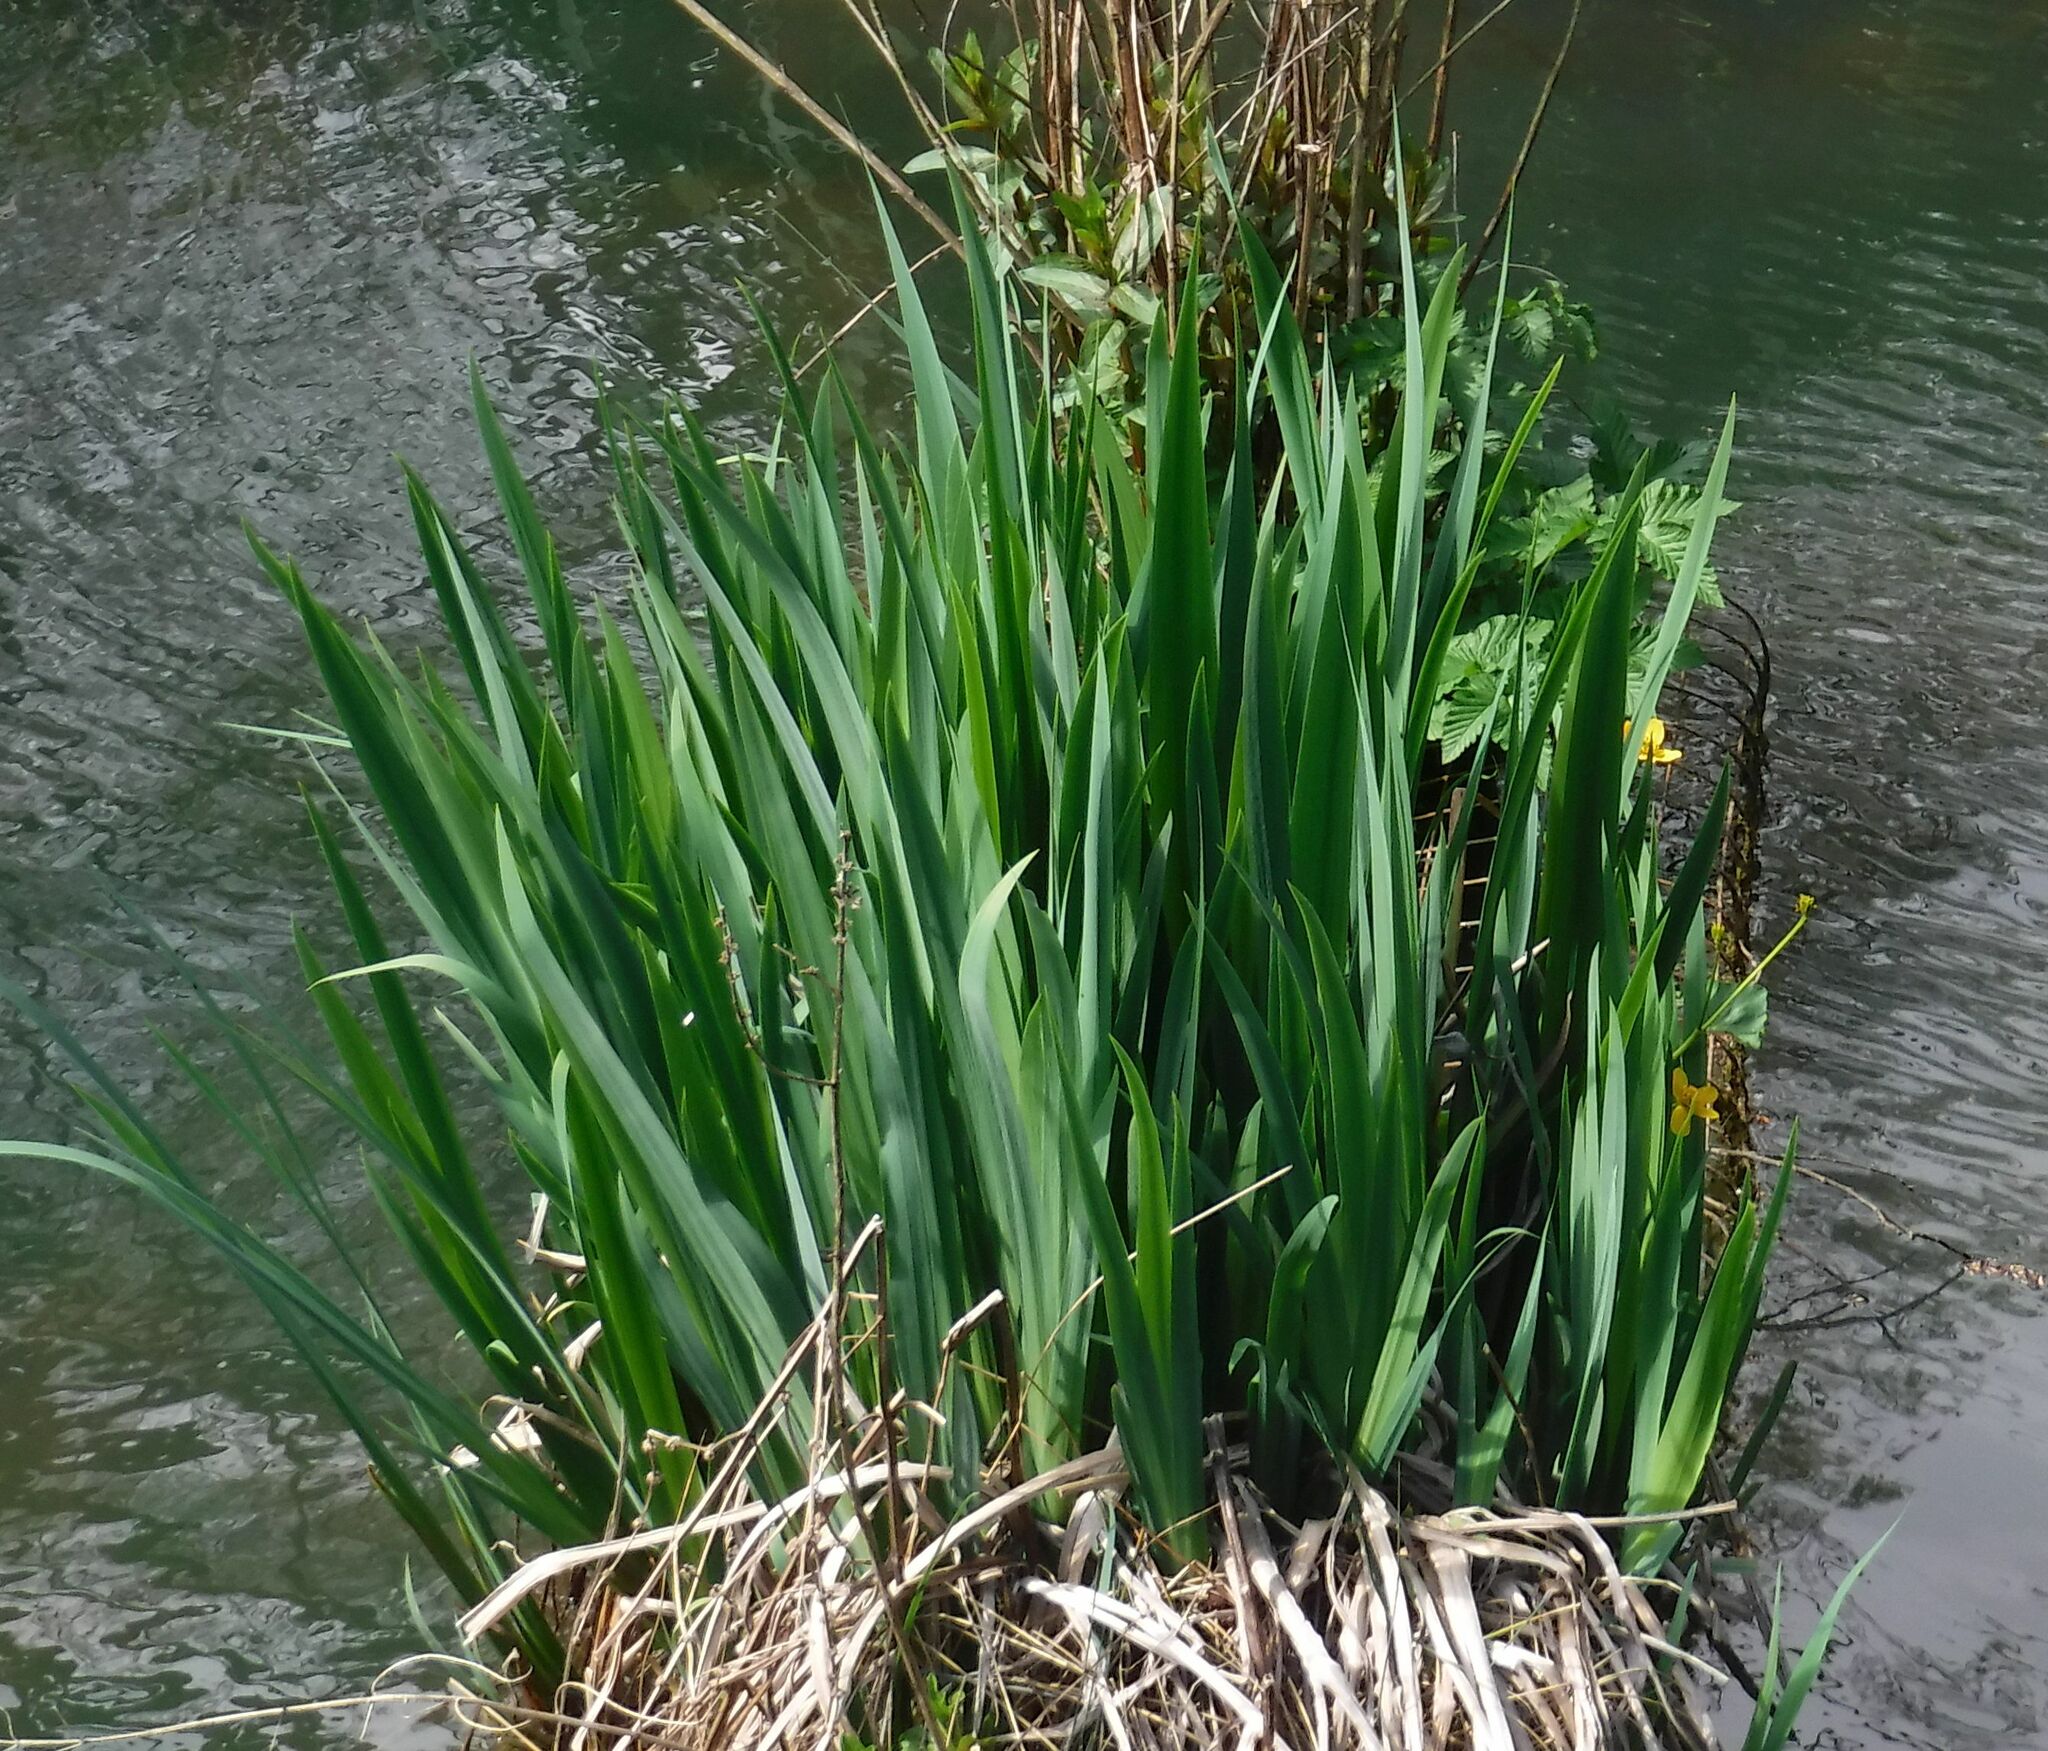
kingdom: Plantae
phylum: Tracheophyta
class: Liliopsida
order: Asparagales
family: Iridaceae
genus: Iris
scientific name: Iris pseudacorus
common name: Yellow flag
